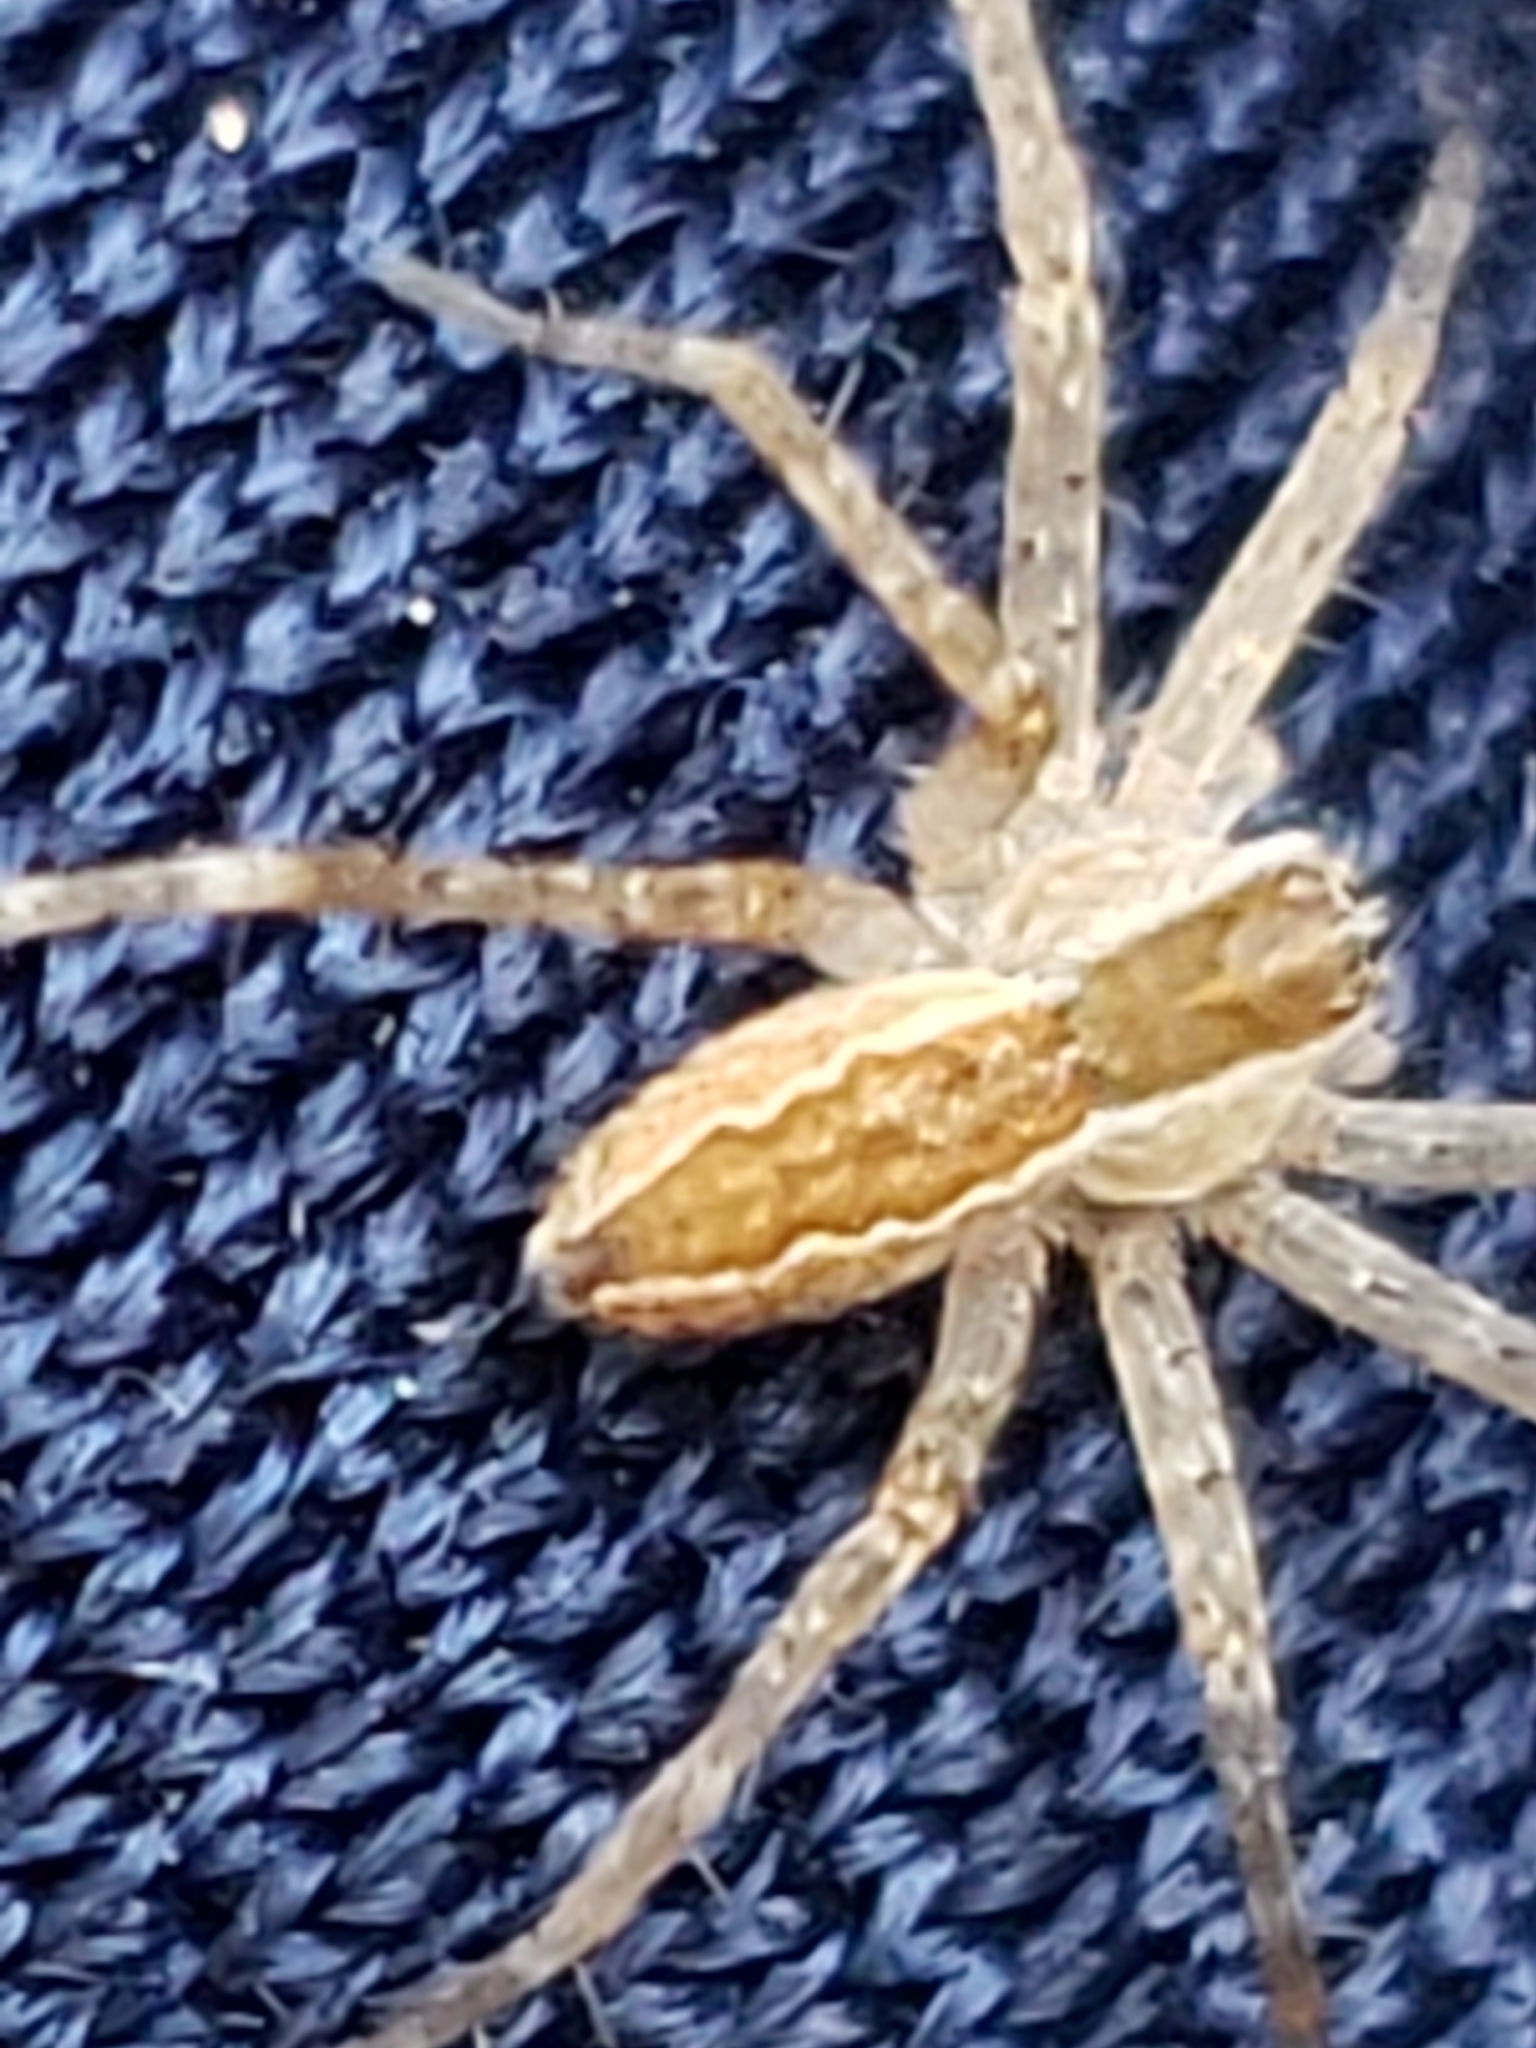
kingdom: Animalia
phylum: Arthropoda
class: Arachnida
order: Araneae
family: Pisauridae
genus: Pisaurina
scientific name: Pisaurina mira
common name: American nursery web spider
